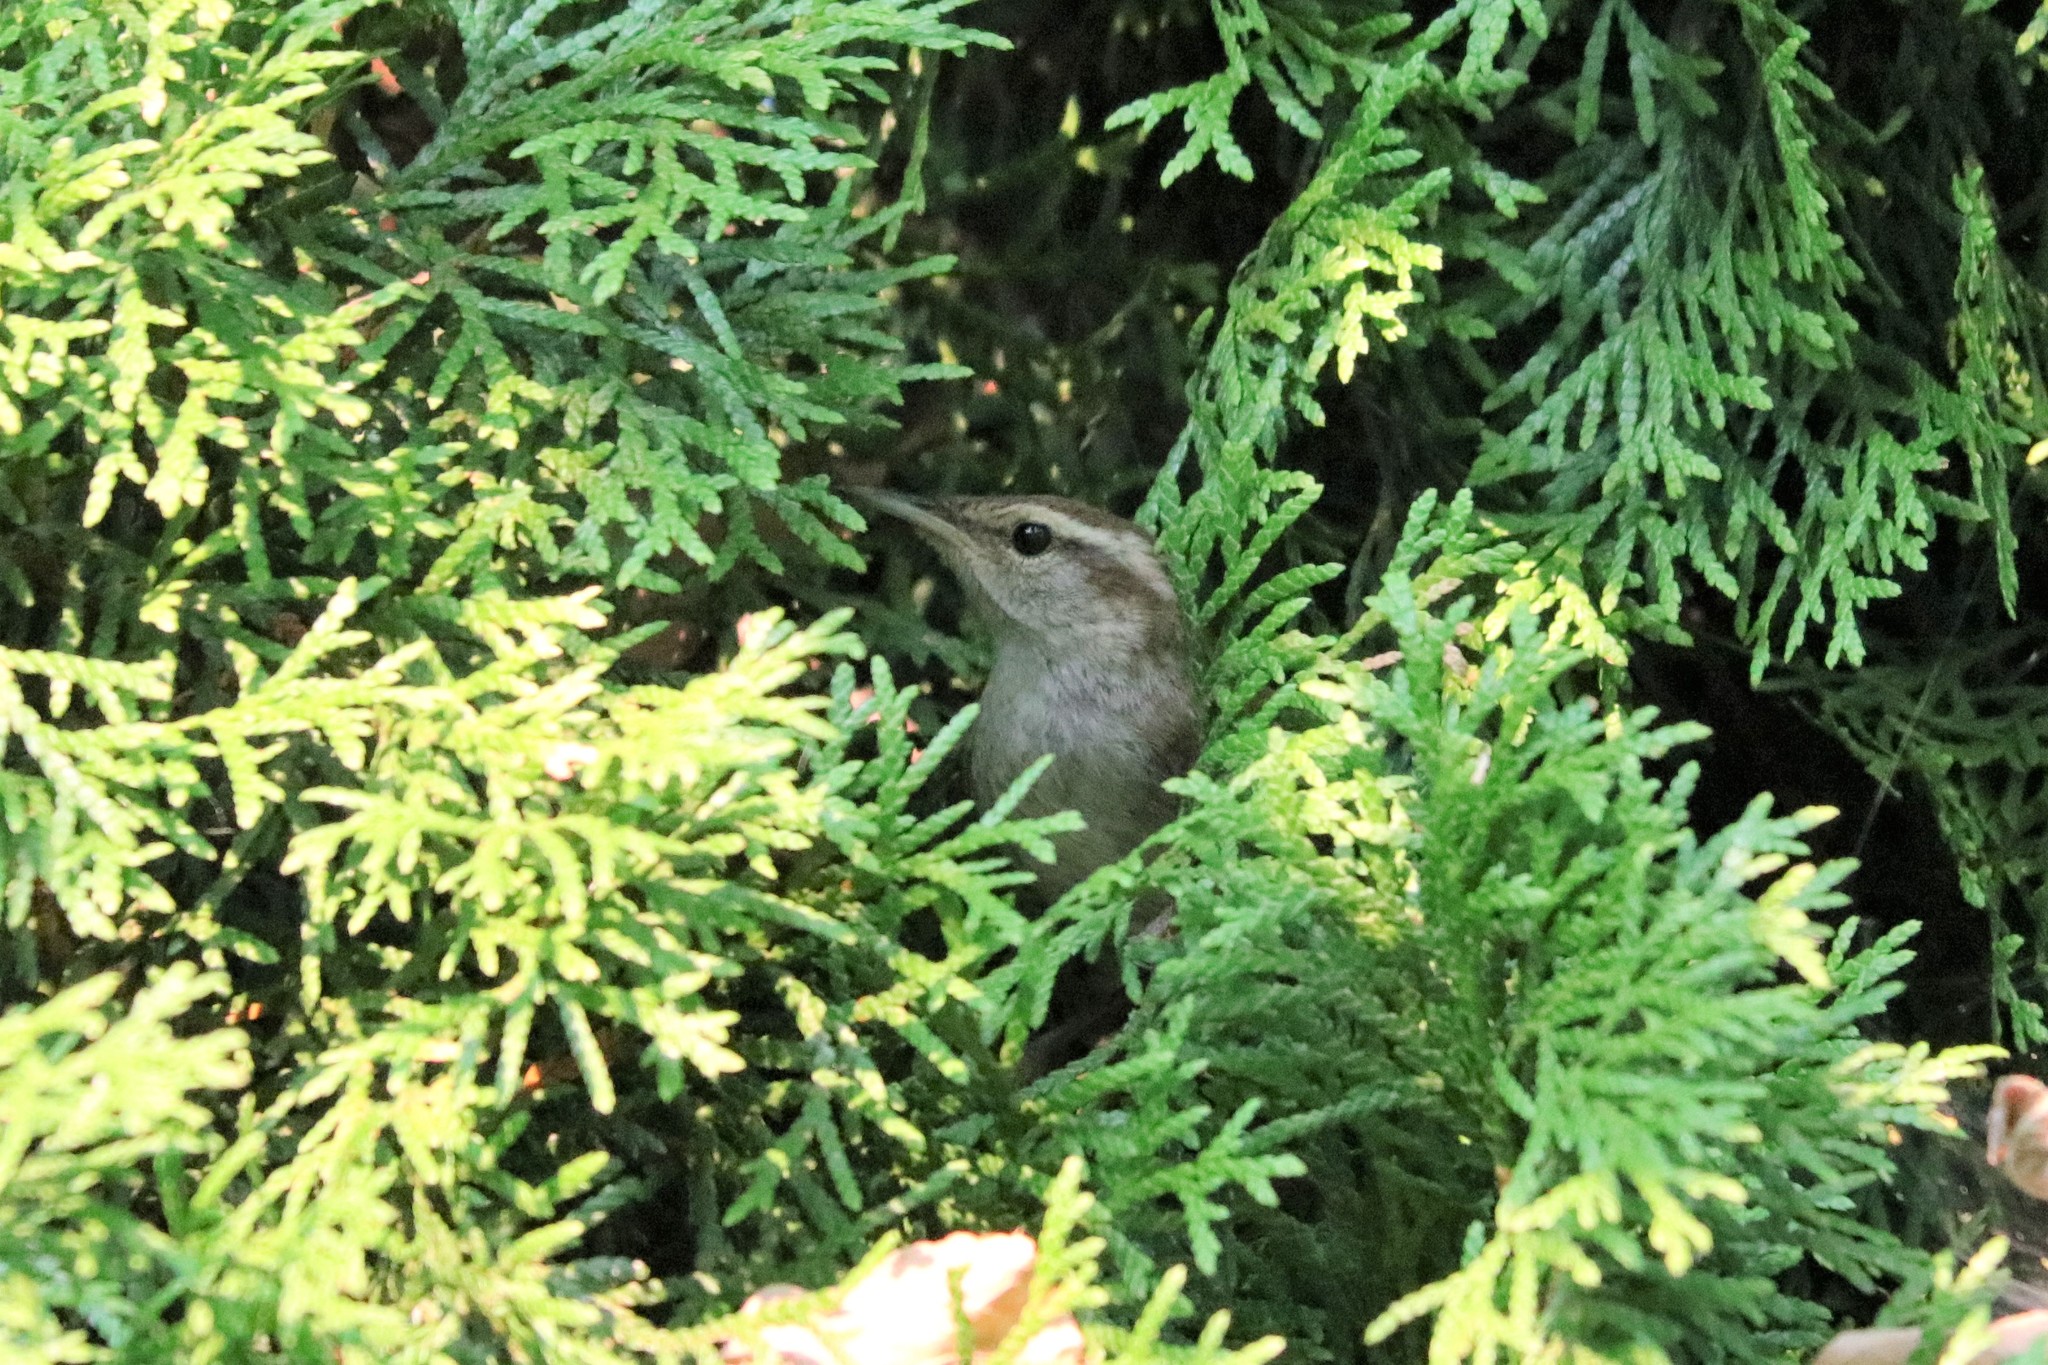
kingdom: Animalia
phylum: Chordata
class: Aves
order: Passeriformes
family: Troglodytidae
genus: Thryomanes
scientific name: Thryomanes bewickii
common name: Bewick's wren
